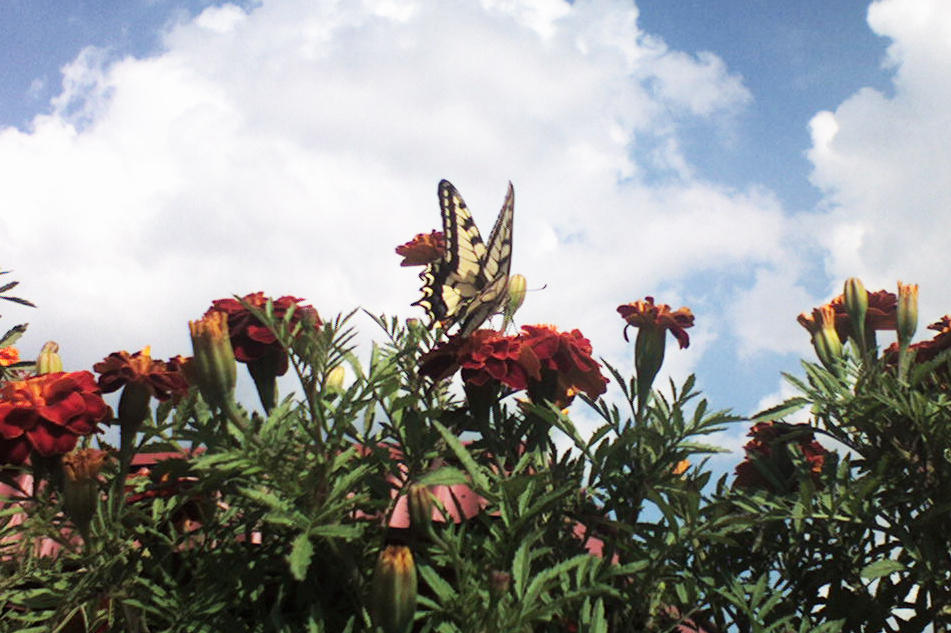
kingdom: Animalia
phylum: Arthropoda
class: Insecta
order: Lepidoptera
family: Papilionidae
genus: Papilio
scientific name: Papilio machaon
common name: Swallowtail
